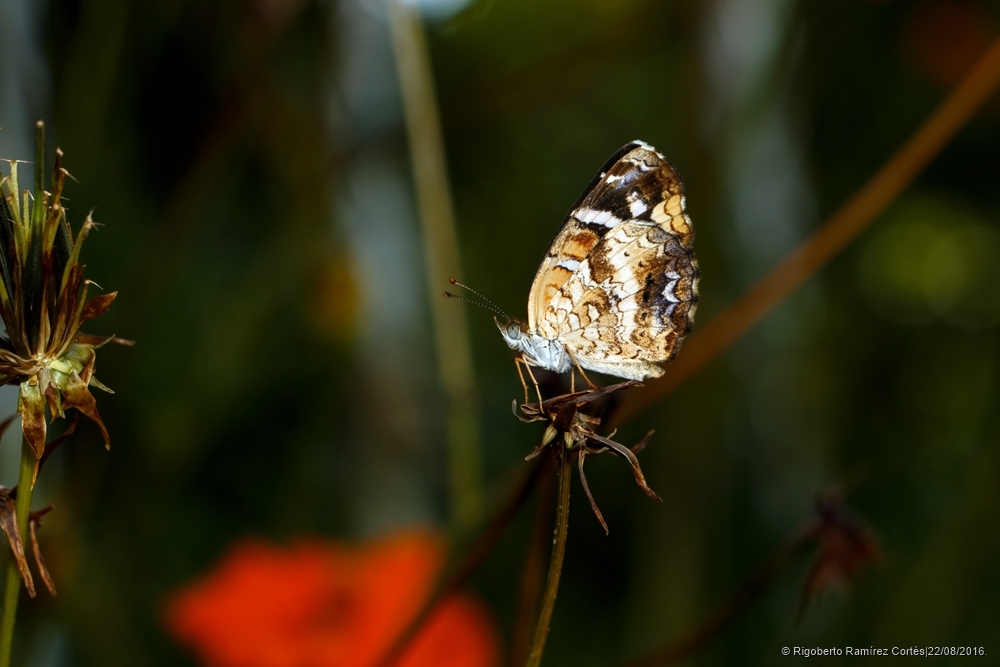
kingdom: Animalia
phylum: Arthropoda
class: Insecta
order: Lepidoptera
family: Nymphalidae
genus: Anthanassa
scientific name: Anthanassa tulcis
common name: Pale-banded crescent
